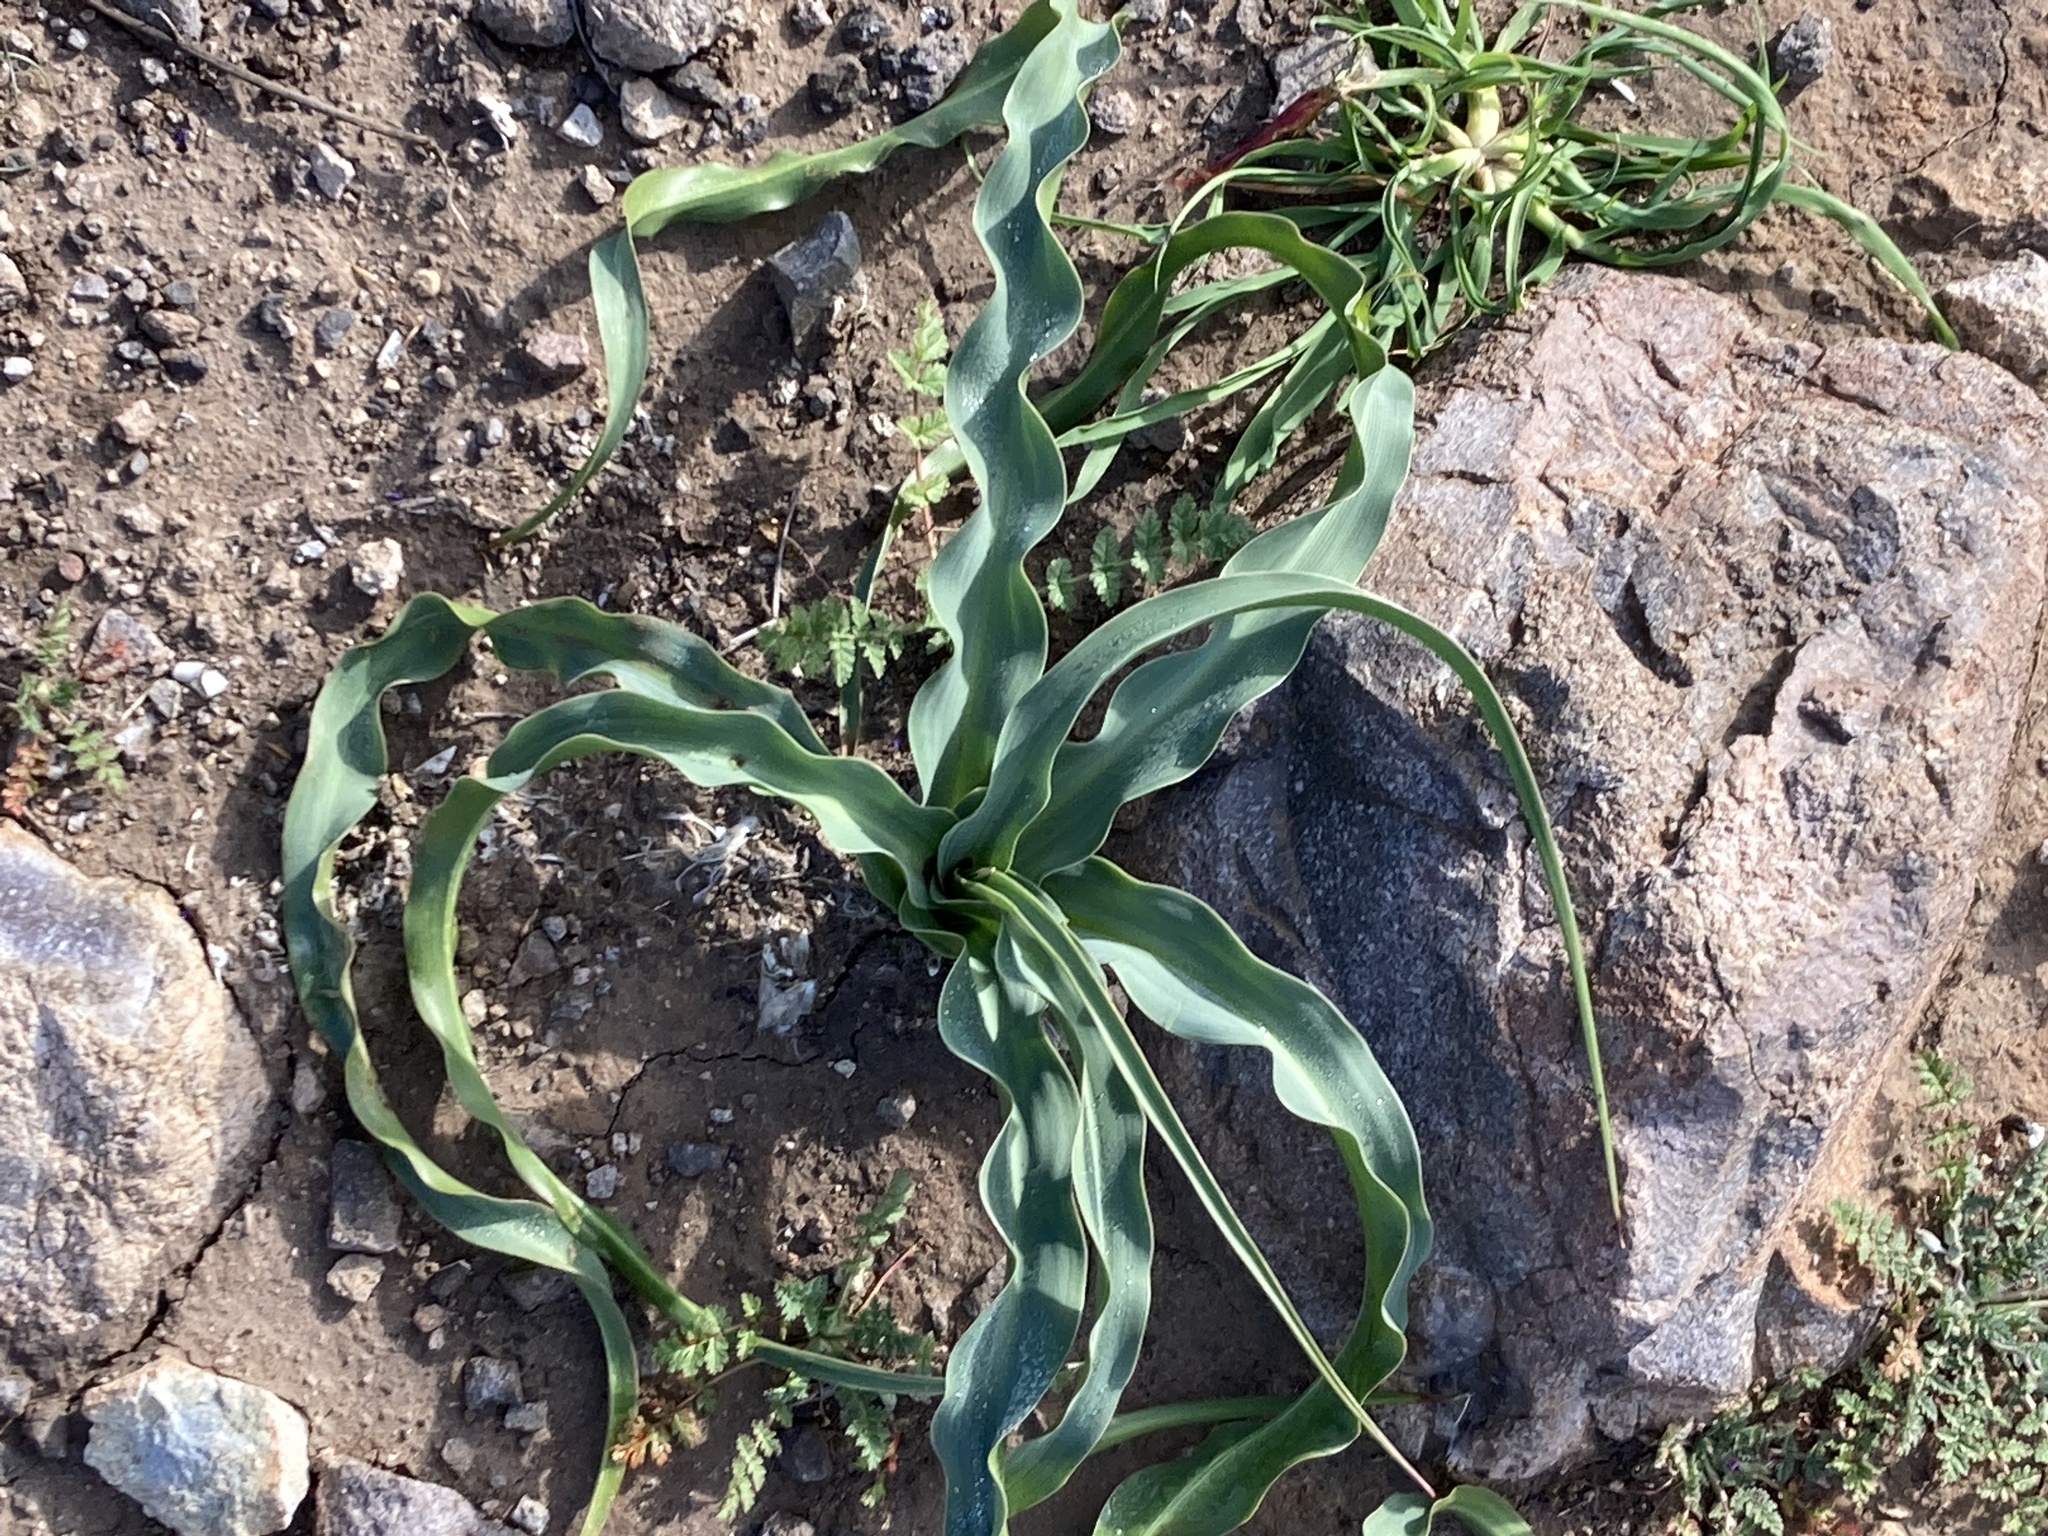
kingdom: Plantae
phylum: Tracheophyta
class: Liliopsida
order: Asparagales
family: Asparagaceae
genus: Chlorogalum
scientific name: Chlorogalum pomeridianum
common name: Amole
